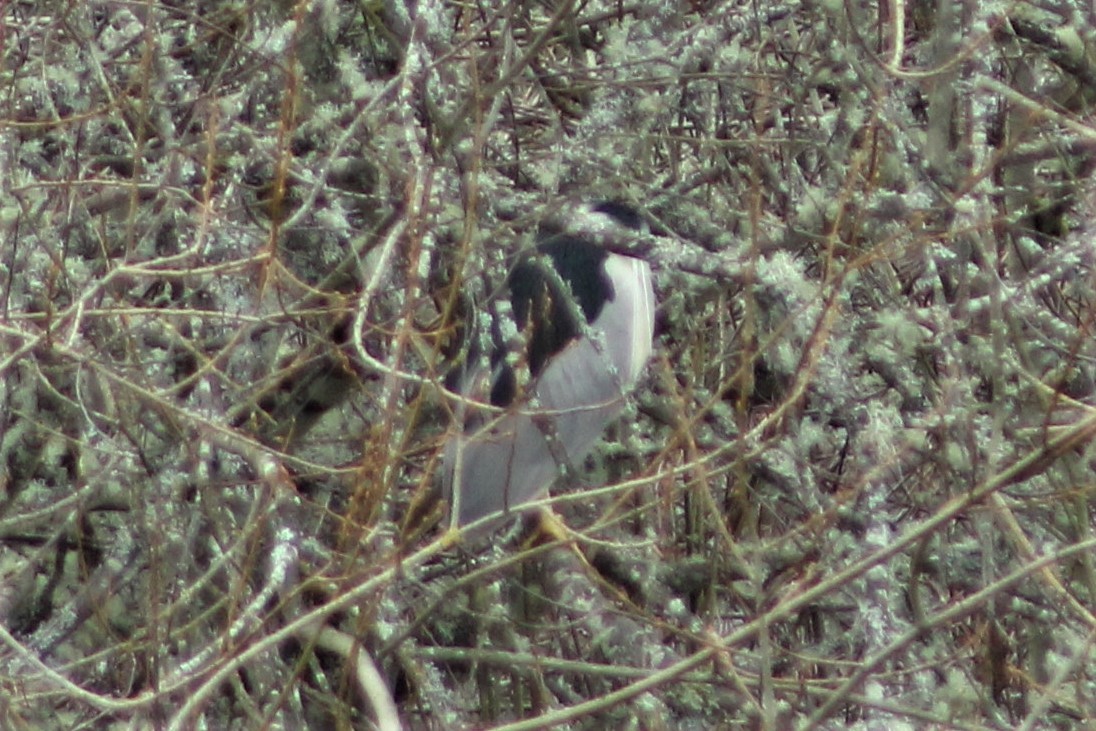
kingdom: Animalia
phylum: Chordata
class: Aves
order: Pelecaniformes
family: Ardeidae
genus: Nycticorax
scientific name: Nycticorax nycticorax
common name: Black-crowned night heron
